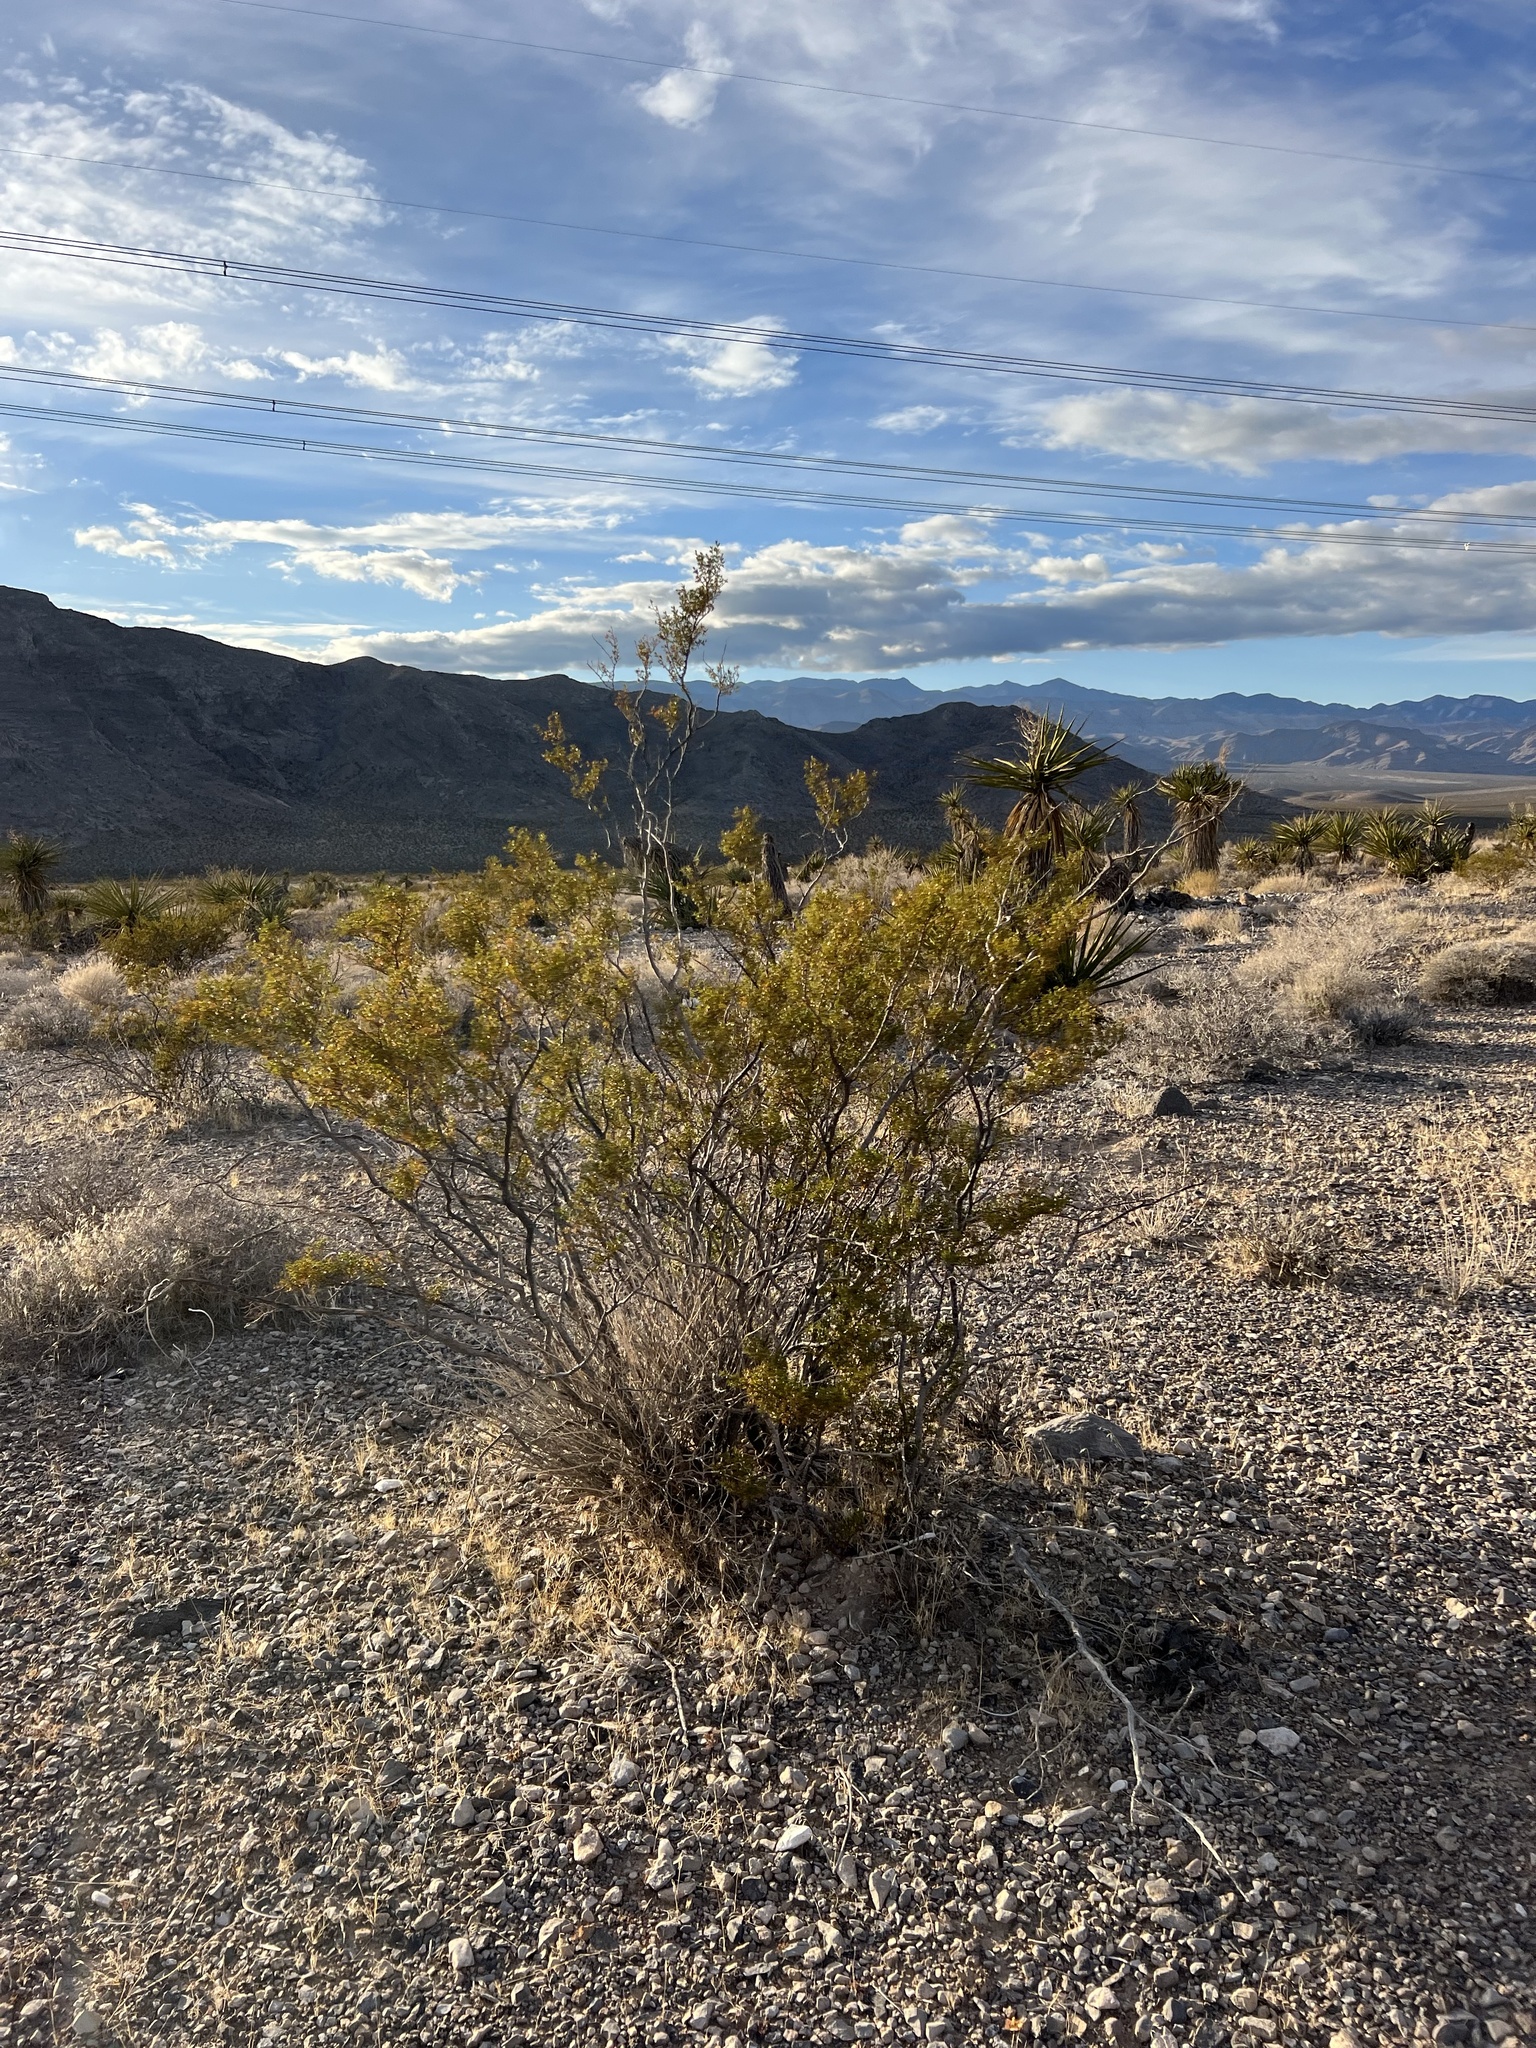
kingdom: Plantae
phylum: Tracheophyta
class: Magnoliopsida
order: Zygophyllales
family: Zygophyllaceae
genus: Larrea
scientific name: Larrea tridentata
